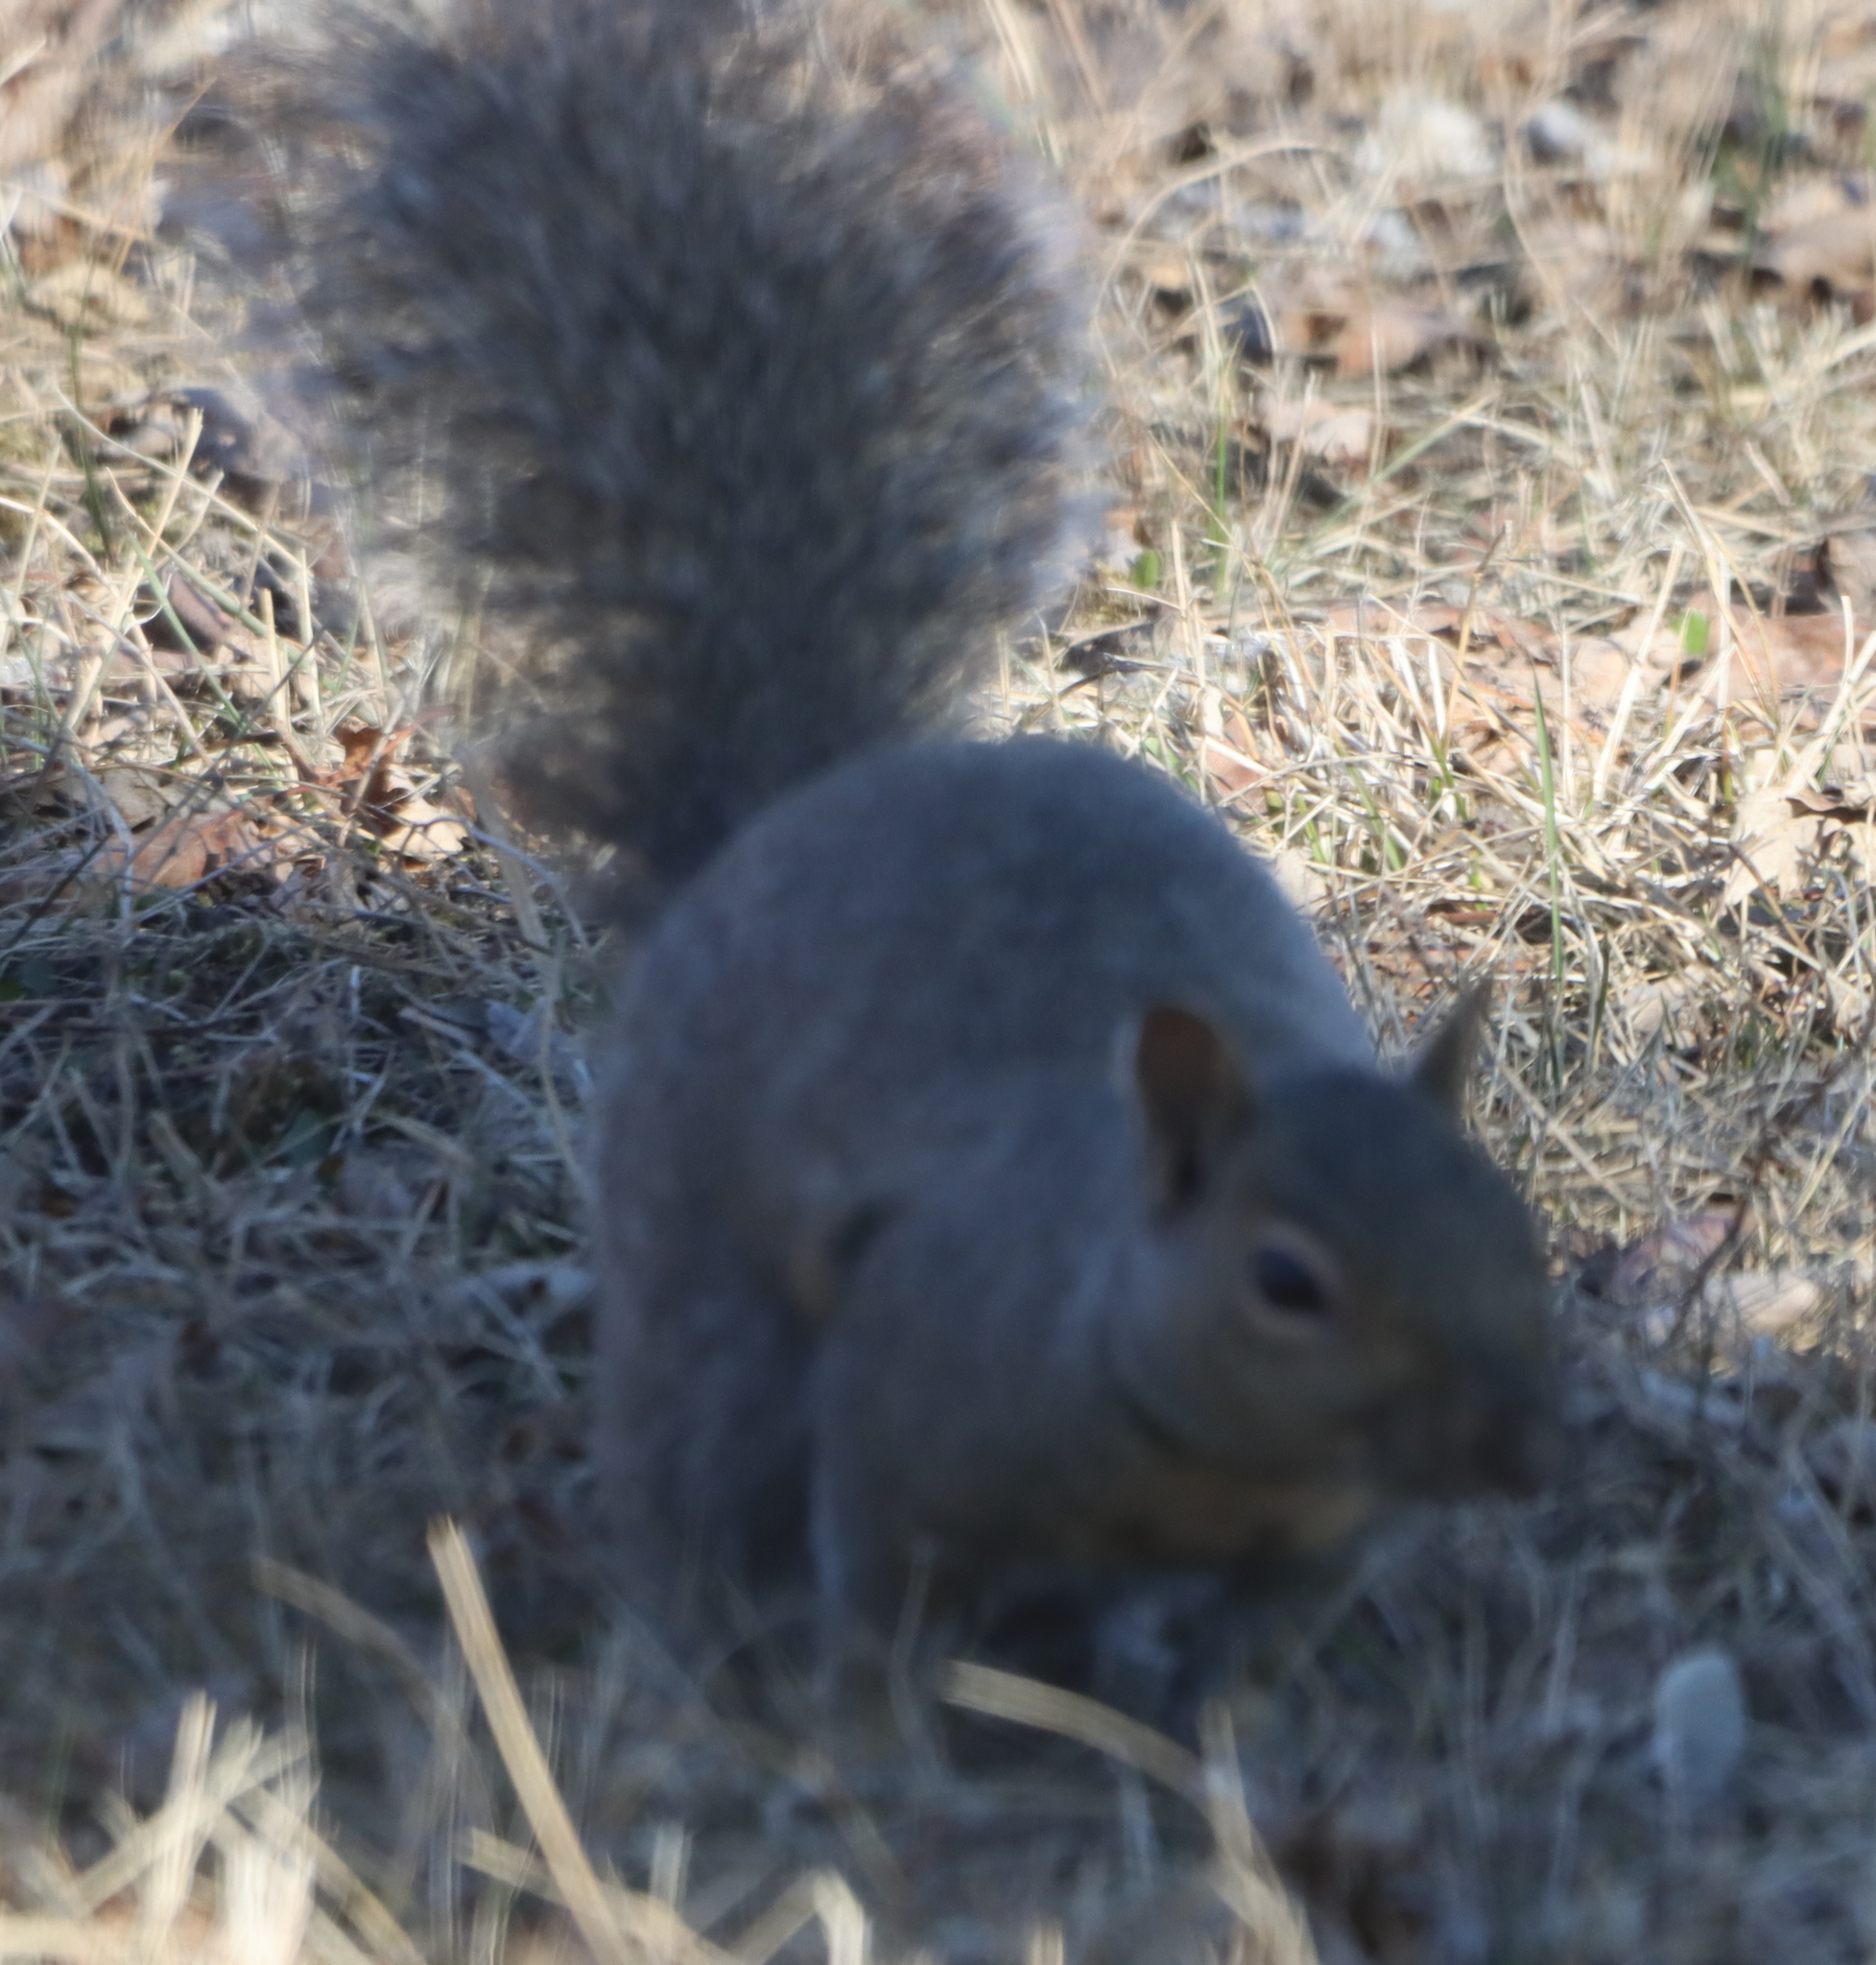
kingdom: Animalia
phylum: Chordata
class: Mammalia
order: Rodentia
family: Sciuridae
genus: Sciurus
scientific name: Sciurus carolinensis
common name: Eastern gray squirrel
